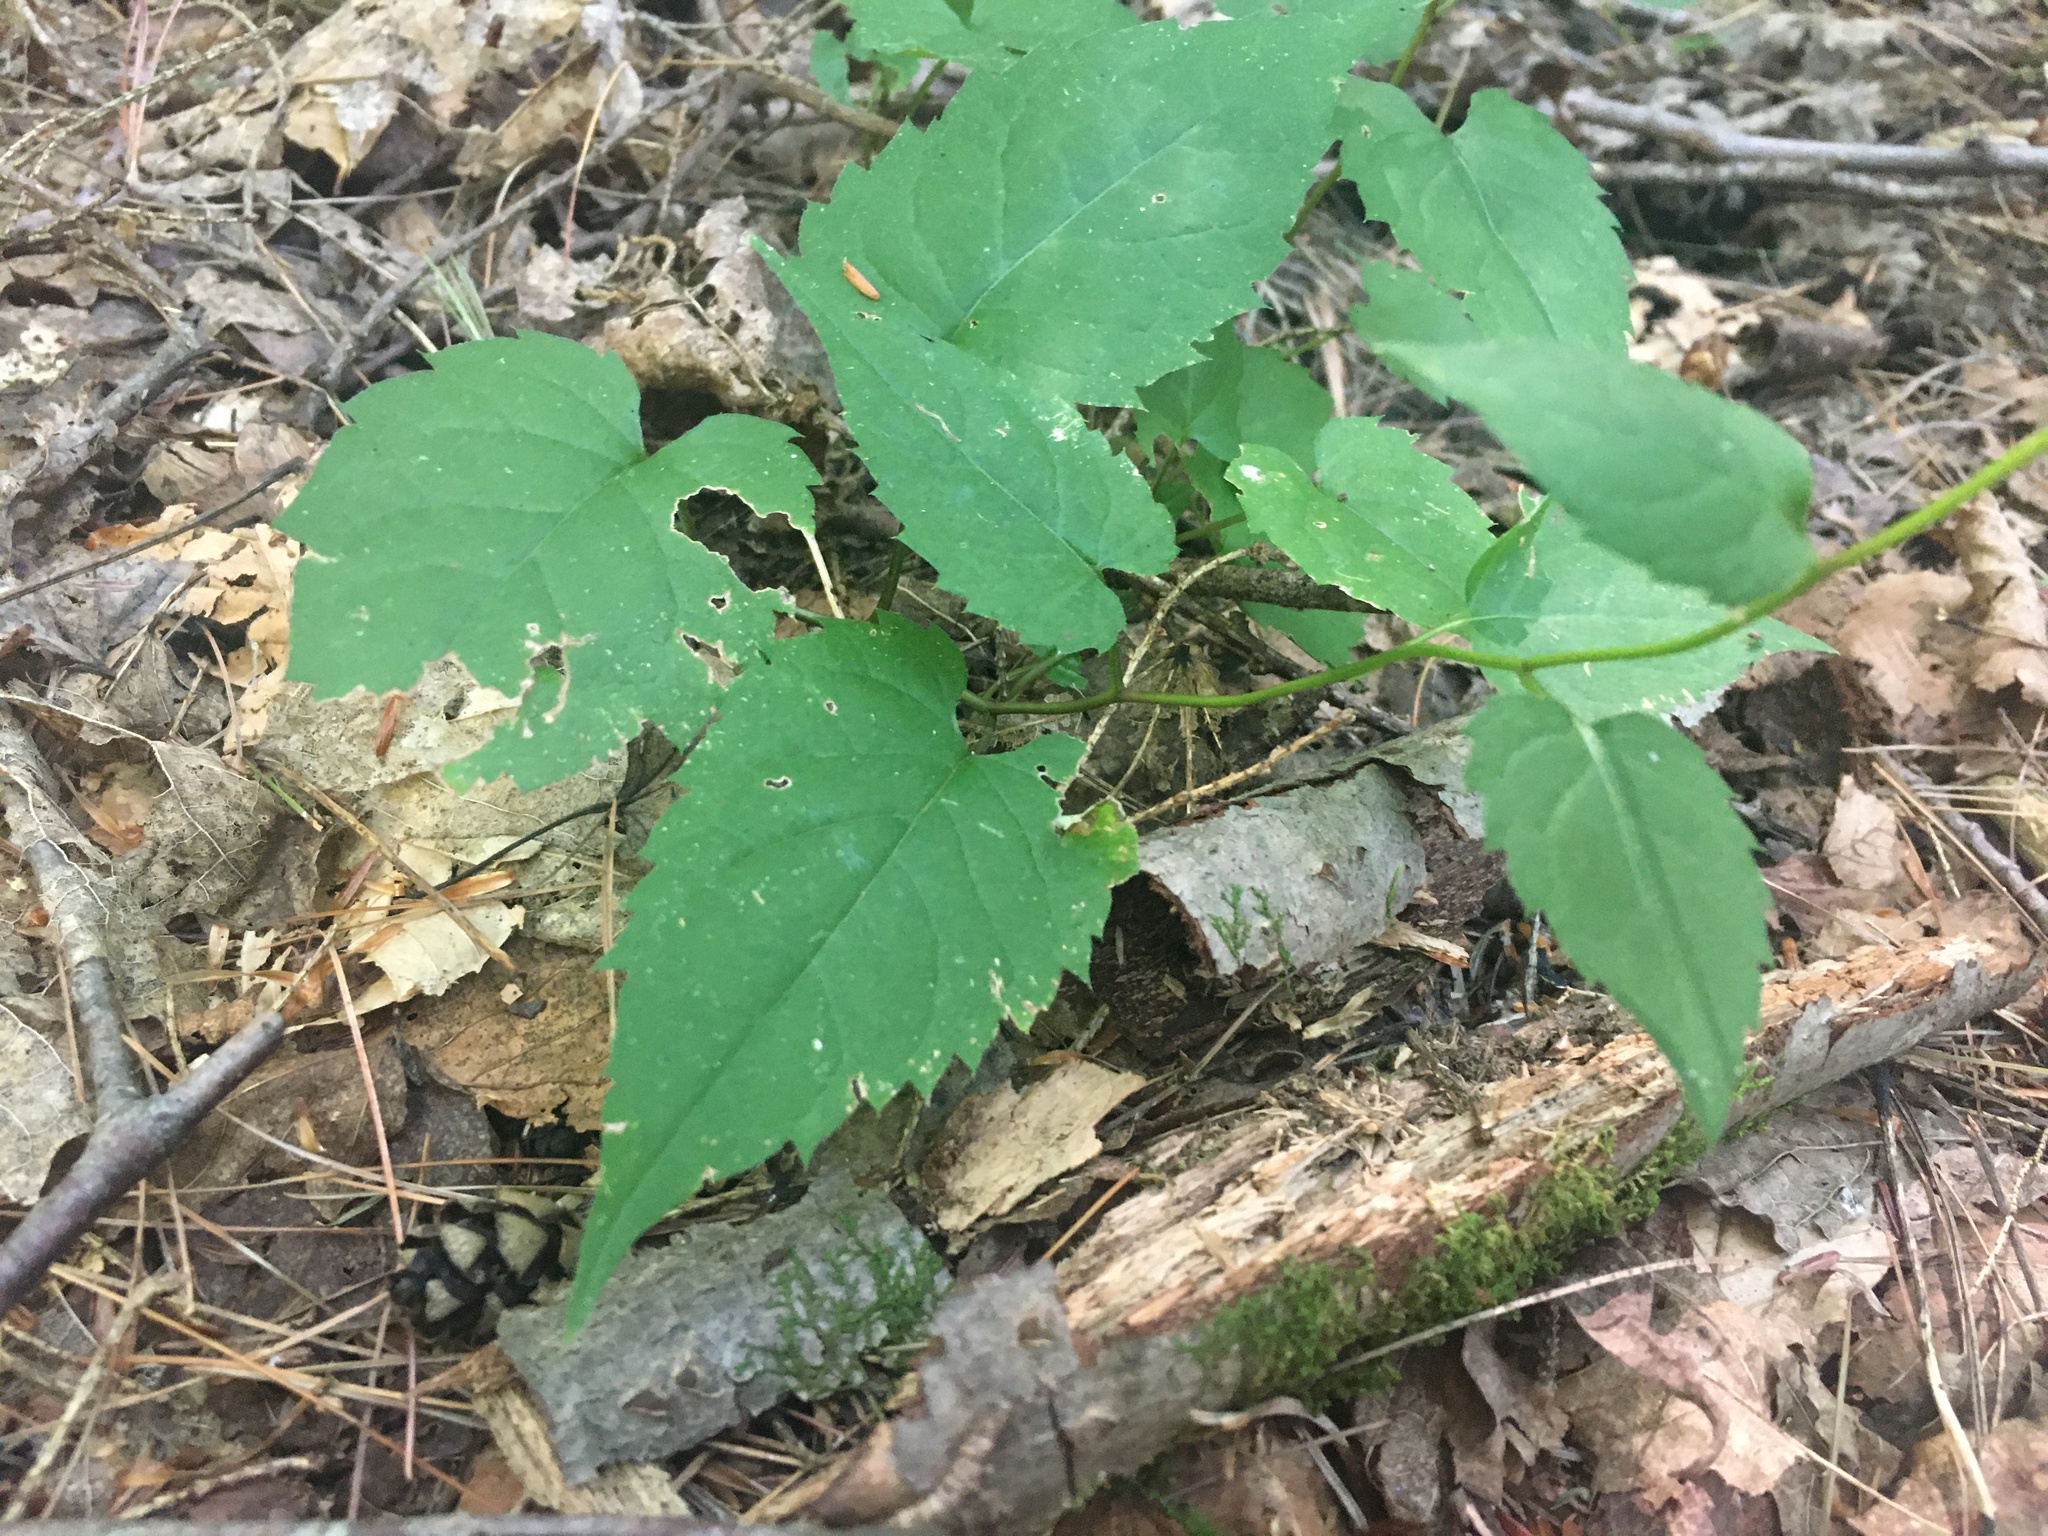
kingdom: Plantae
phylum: Tracheophyta
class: Magnoliopsida
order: Asterales
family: Asteraceae
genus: Eurybia
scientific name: Eurybia divaricata
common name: White wood aster
